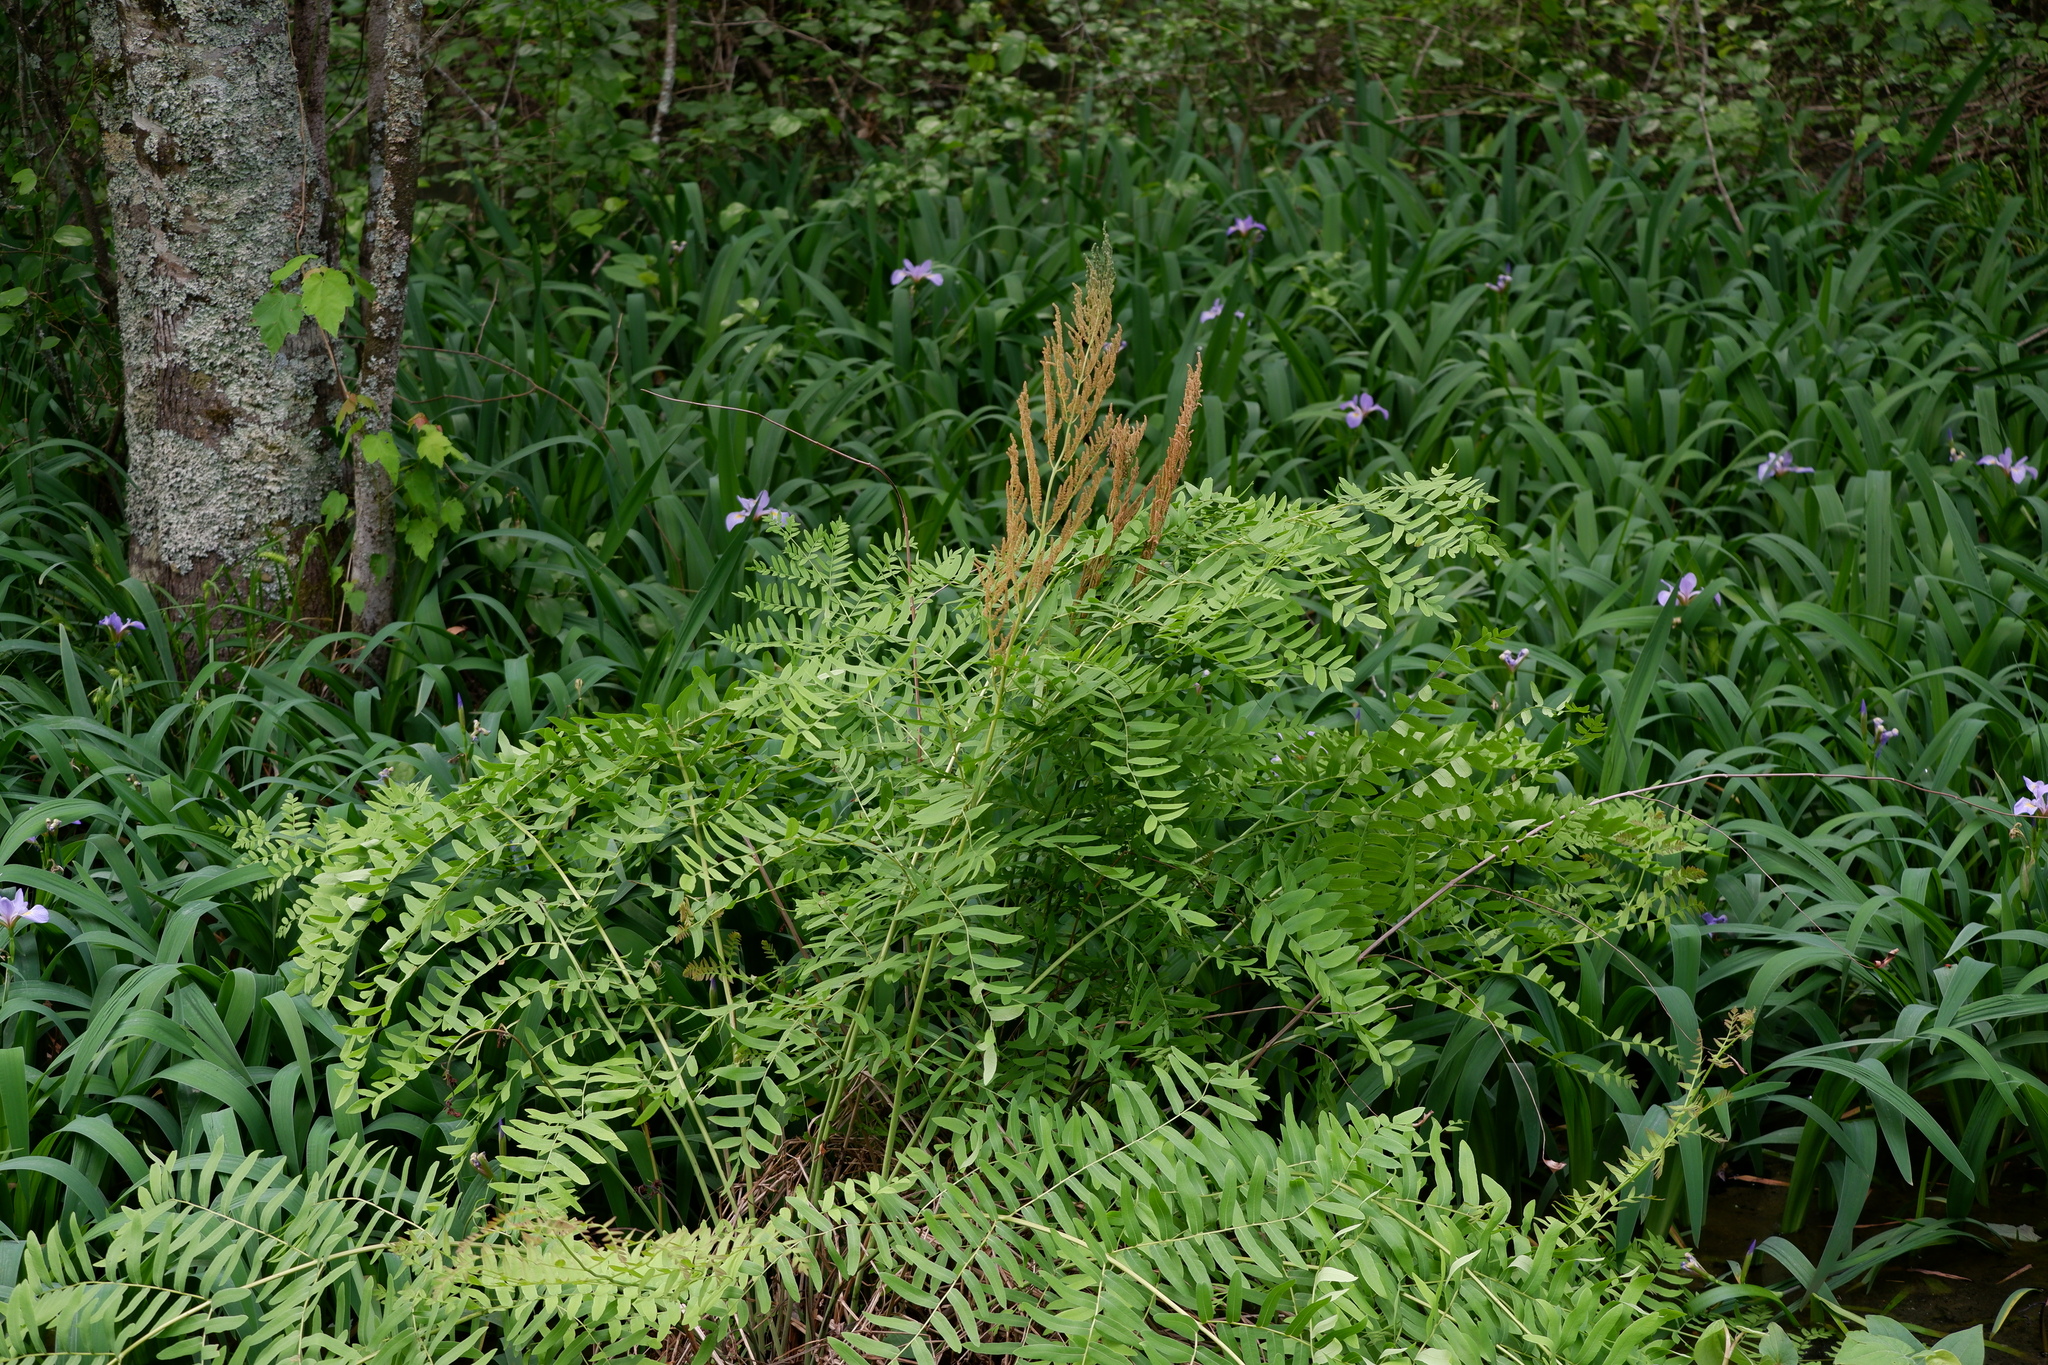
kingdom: Plantae
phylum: Tracheophyta
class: Polypodiopsida
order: Osmundales
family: Osmundaceae
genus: Osmunda
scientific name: Osmunda spectabilis
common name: American royal fern
